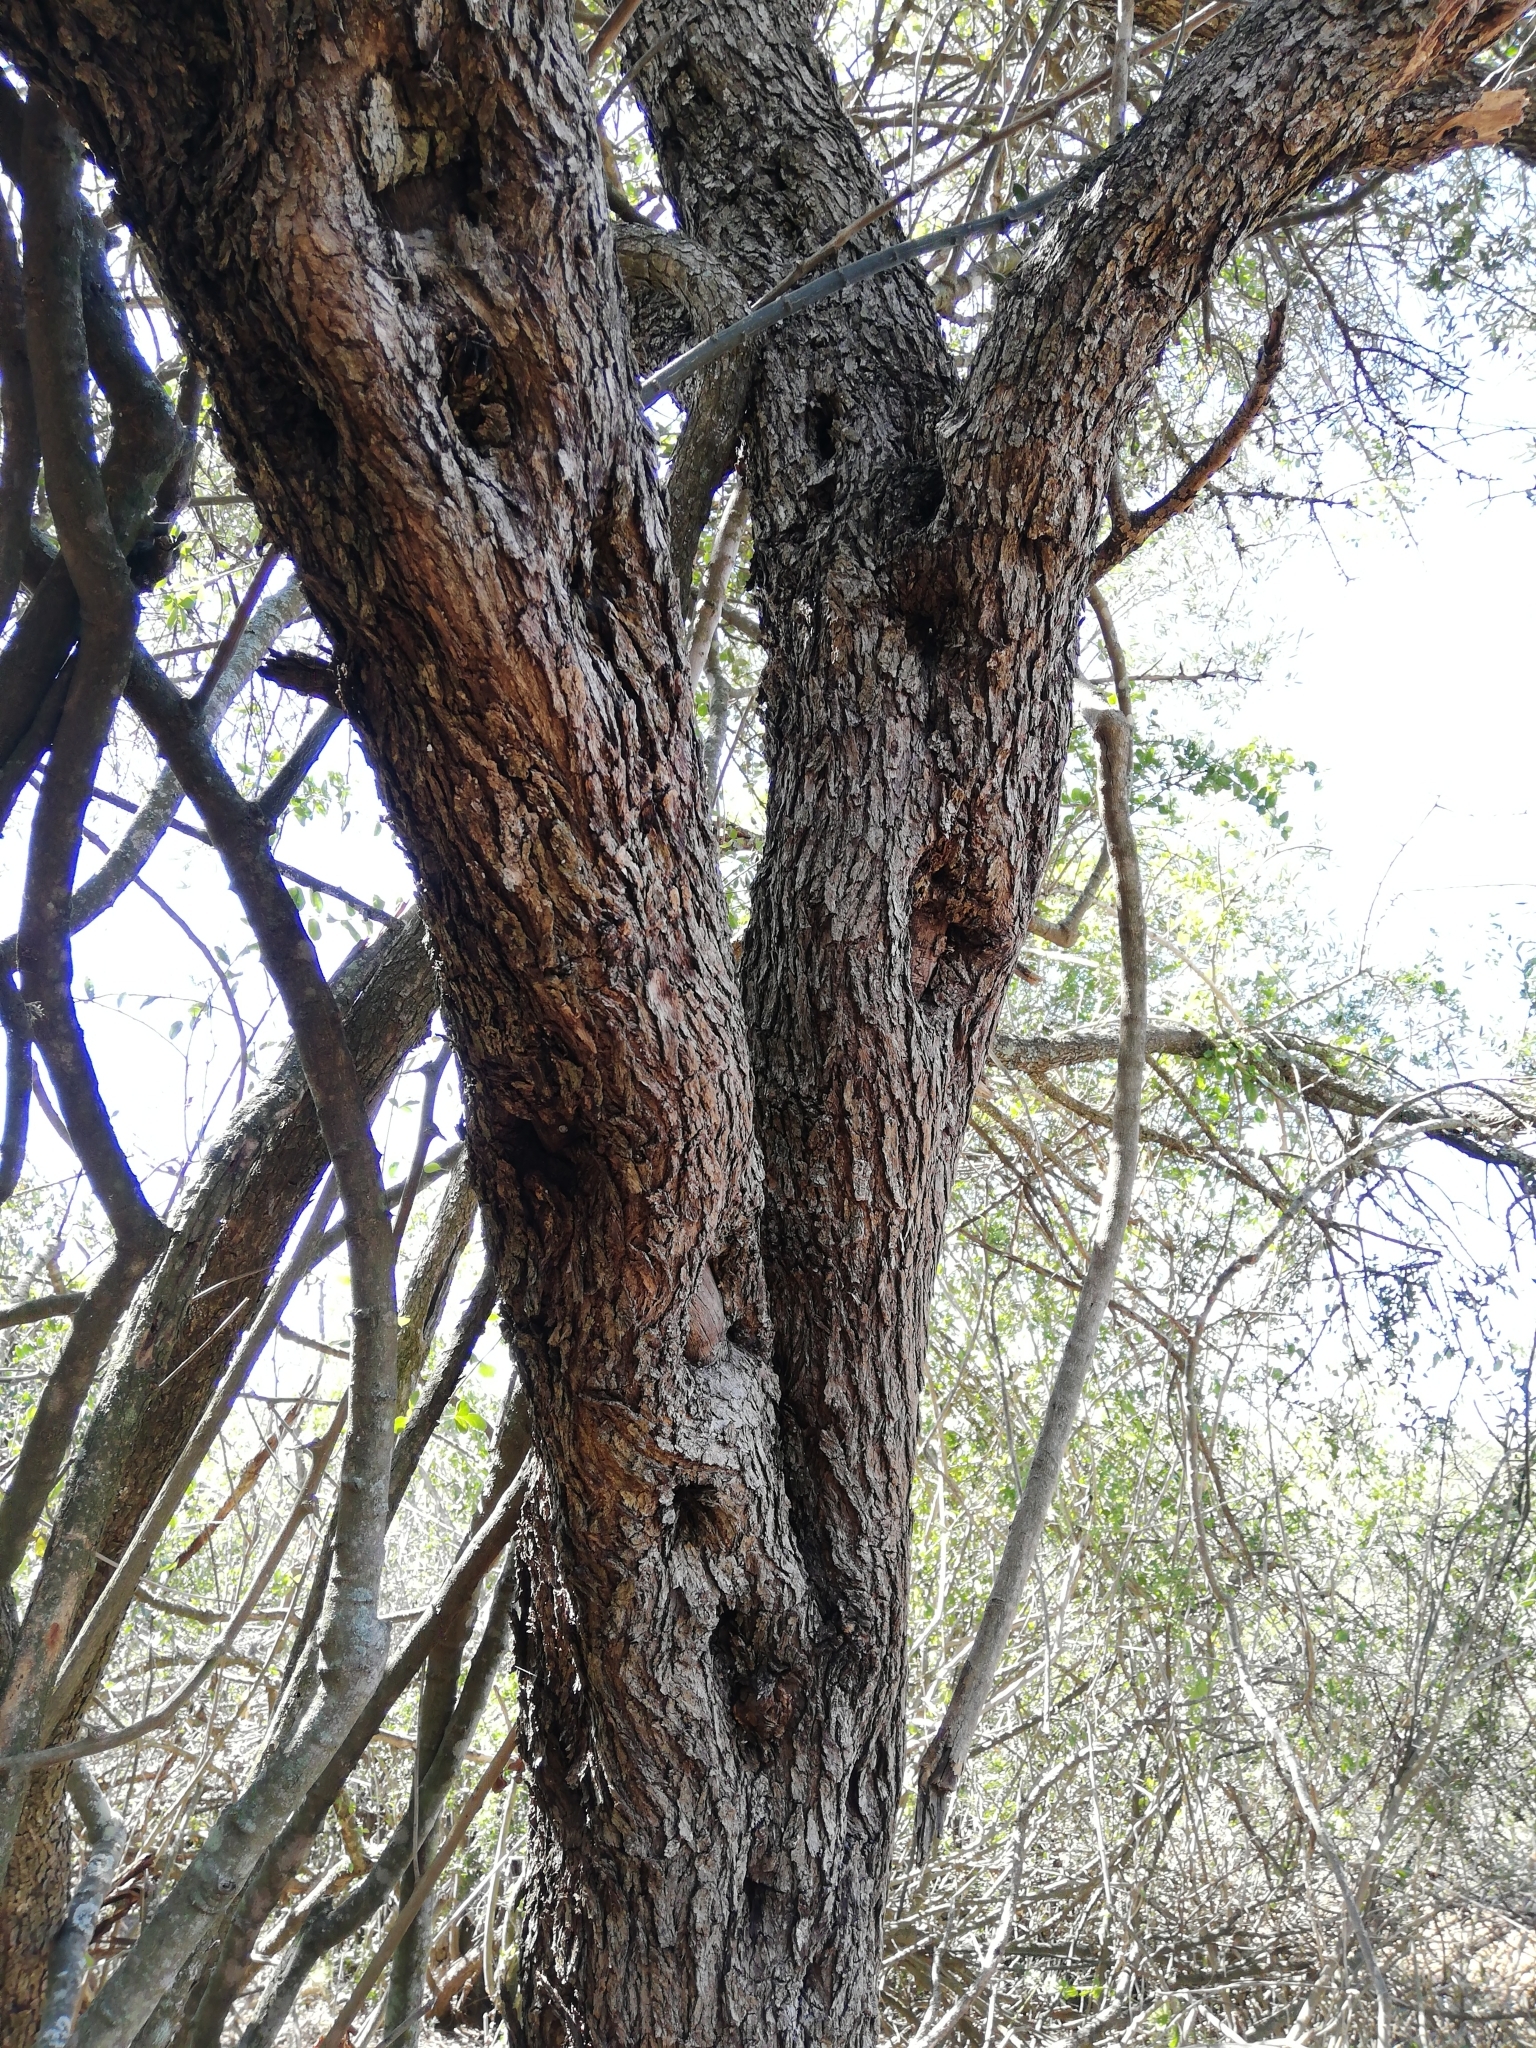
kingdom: Plantae
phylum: Tracheophyta
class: Magnoliopsida
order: Lamiales
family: Oleaceae
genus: Olea
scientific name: Olea europaea
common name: Olive
